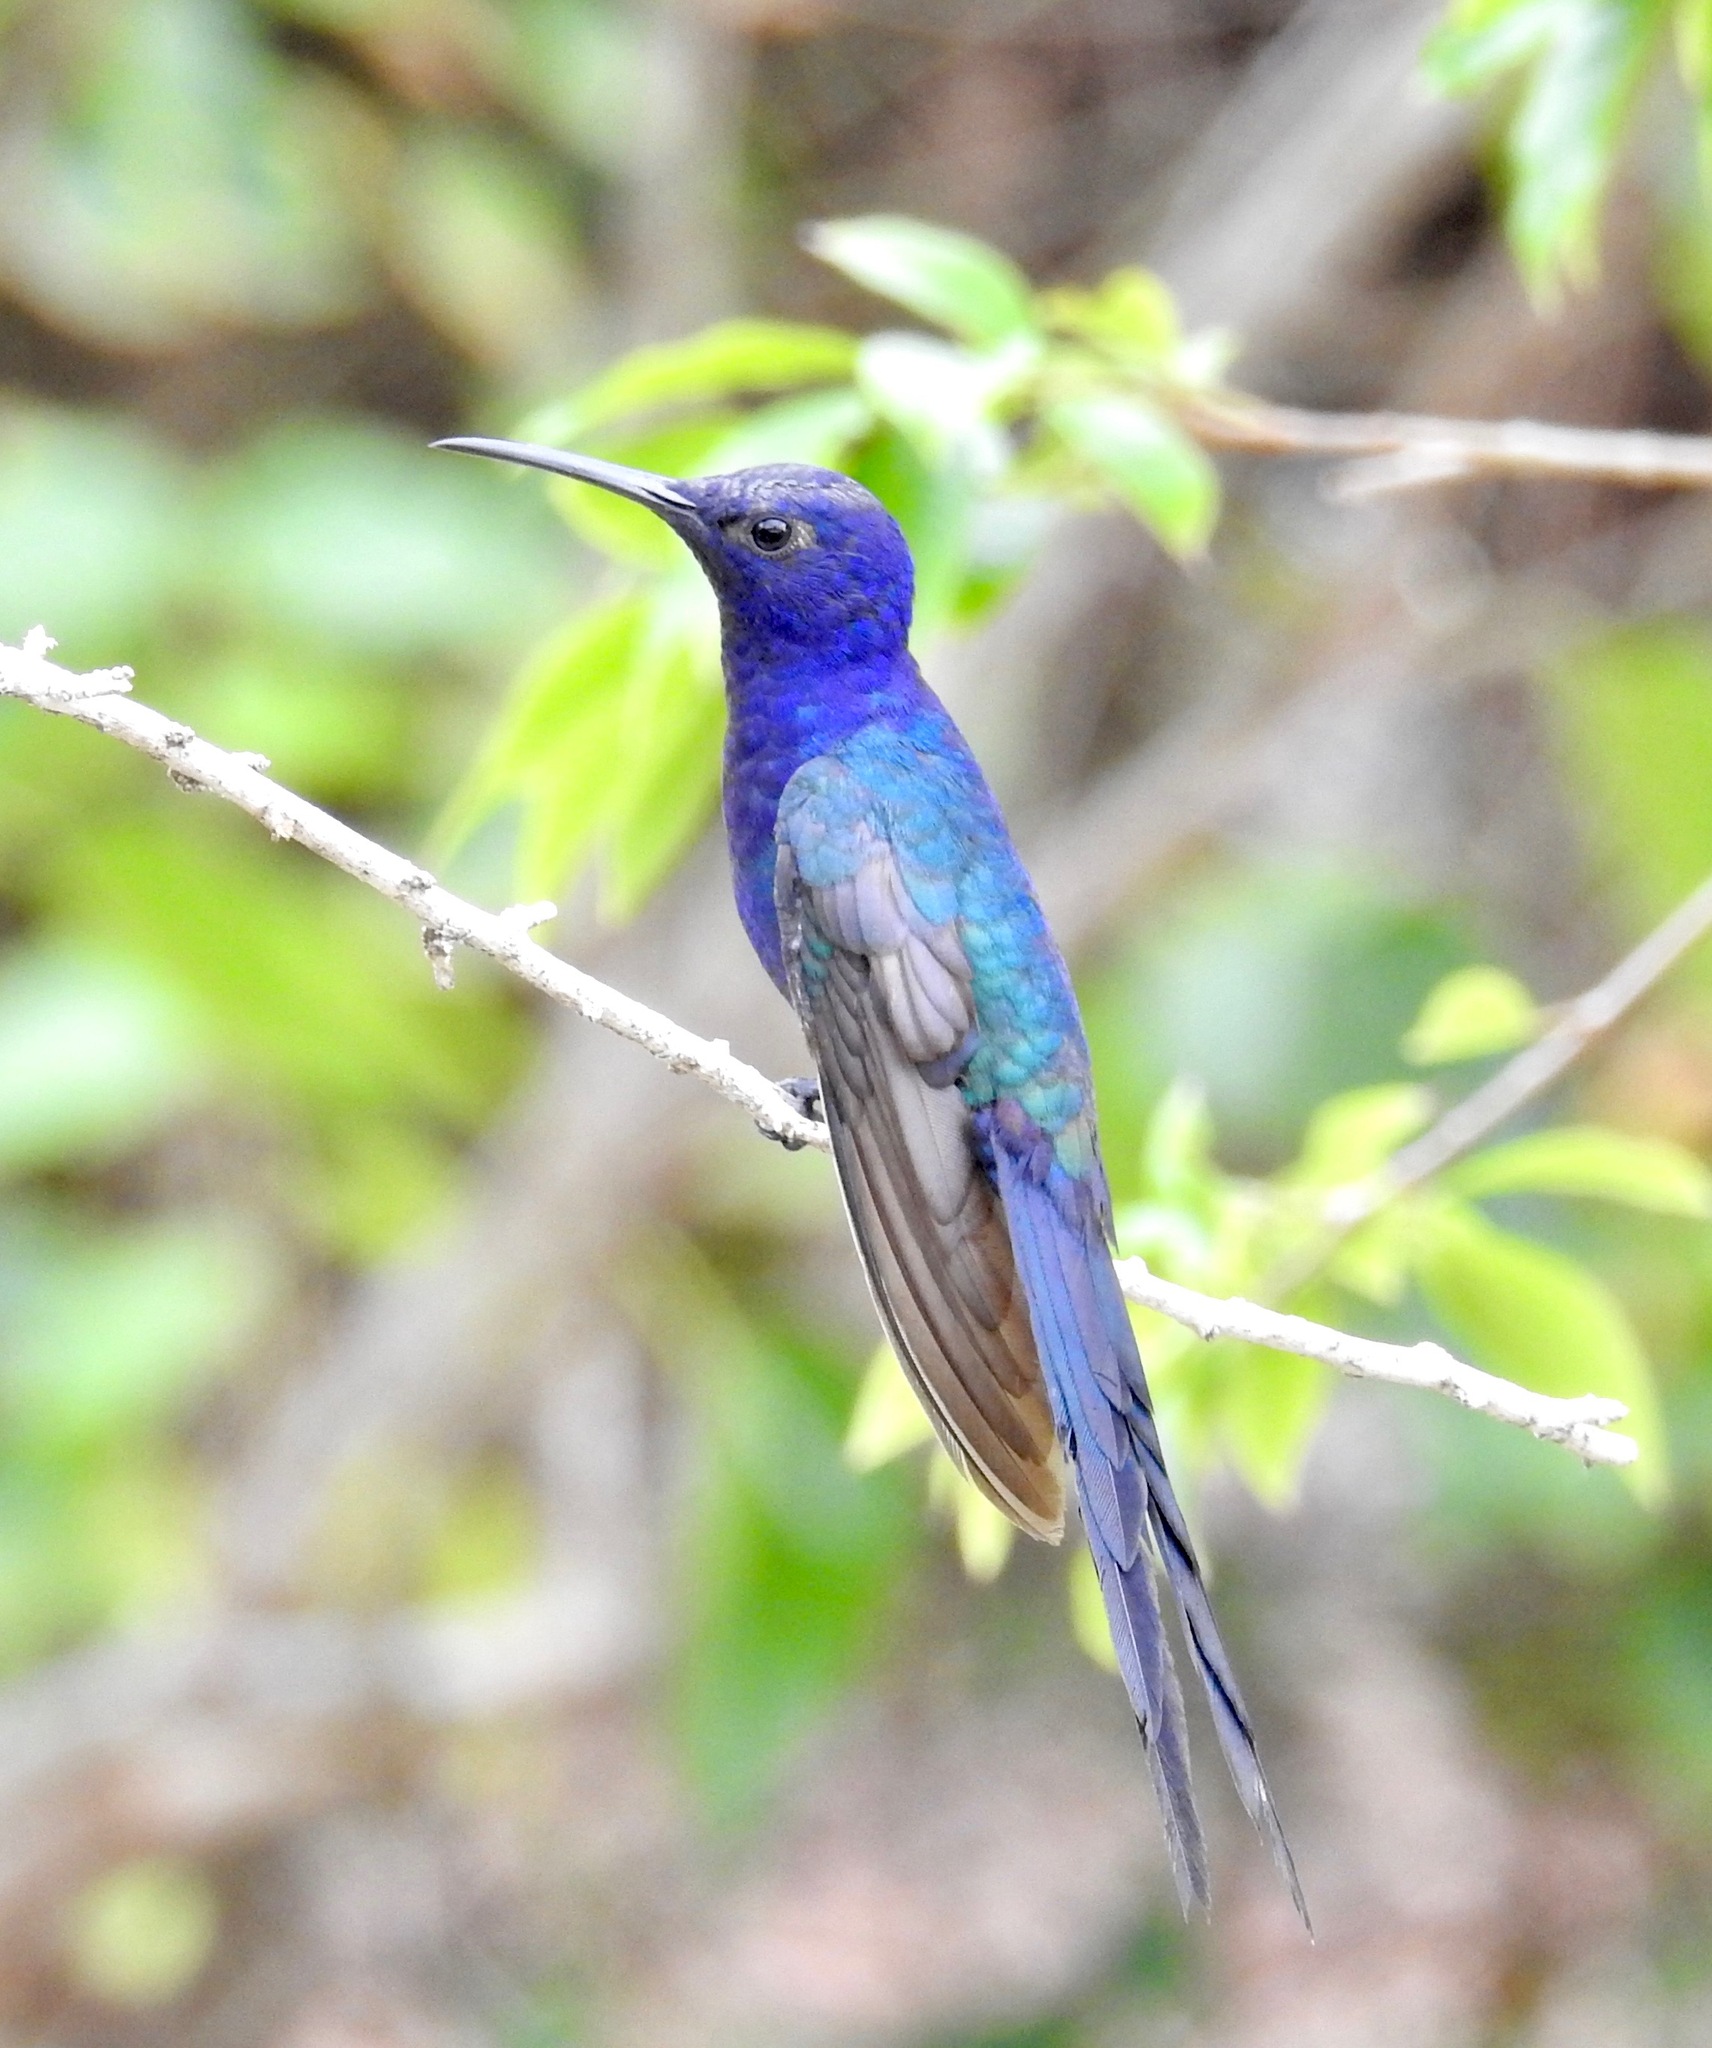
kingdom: Animalia
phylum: Chordata
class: Aves
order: Apodiformes
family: Trochilidae
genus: Eupetomena
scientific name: Eupetomena macroura
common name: Swallow-tailed hummingbird
